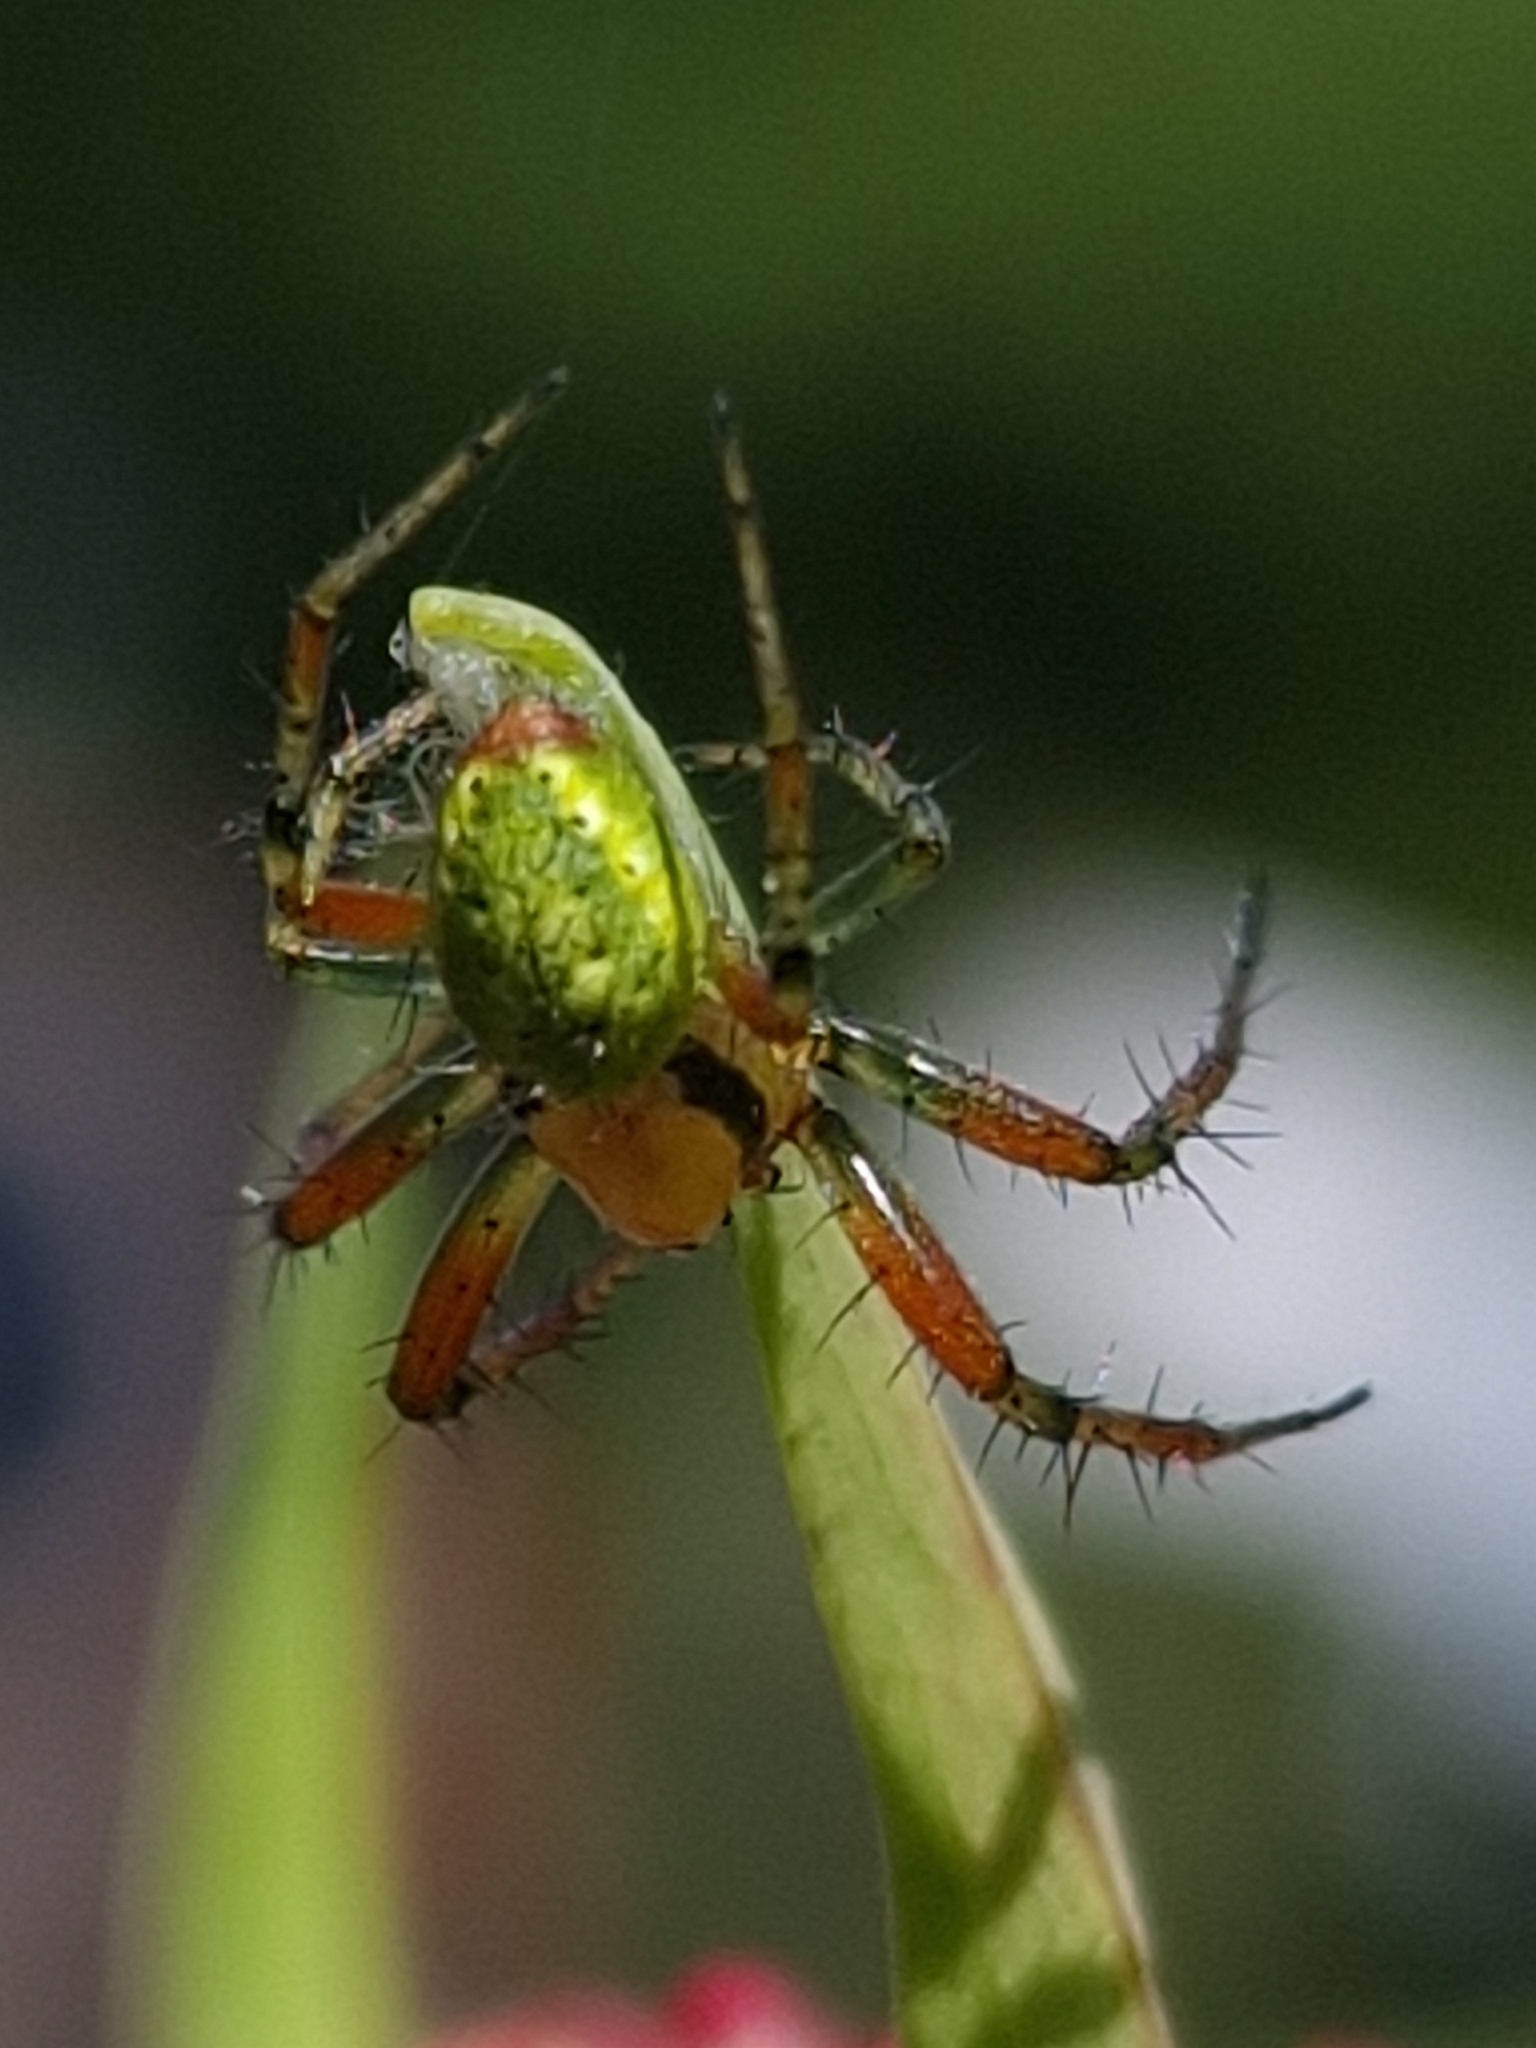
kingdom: Animalia
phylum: Arthropoda
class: Arachnida
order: Araneae
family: Araneidae
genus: Araniella
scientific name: Araniella cucurbitina
